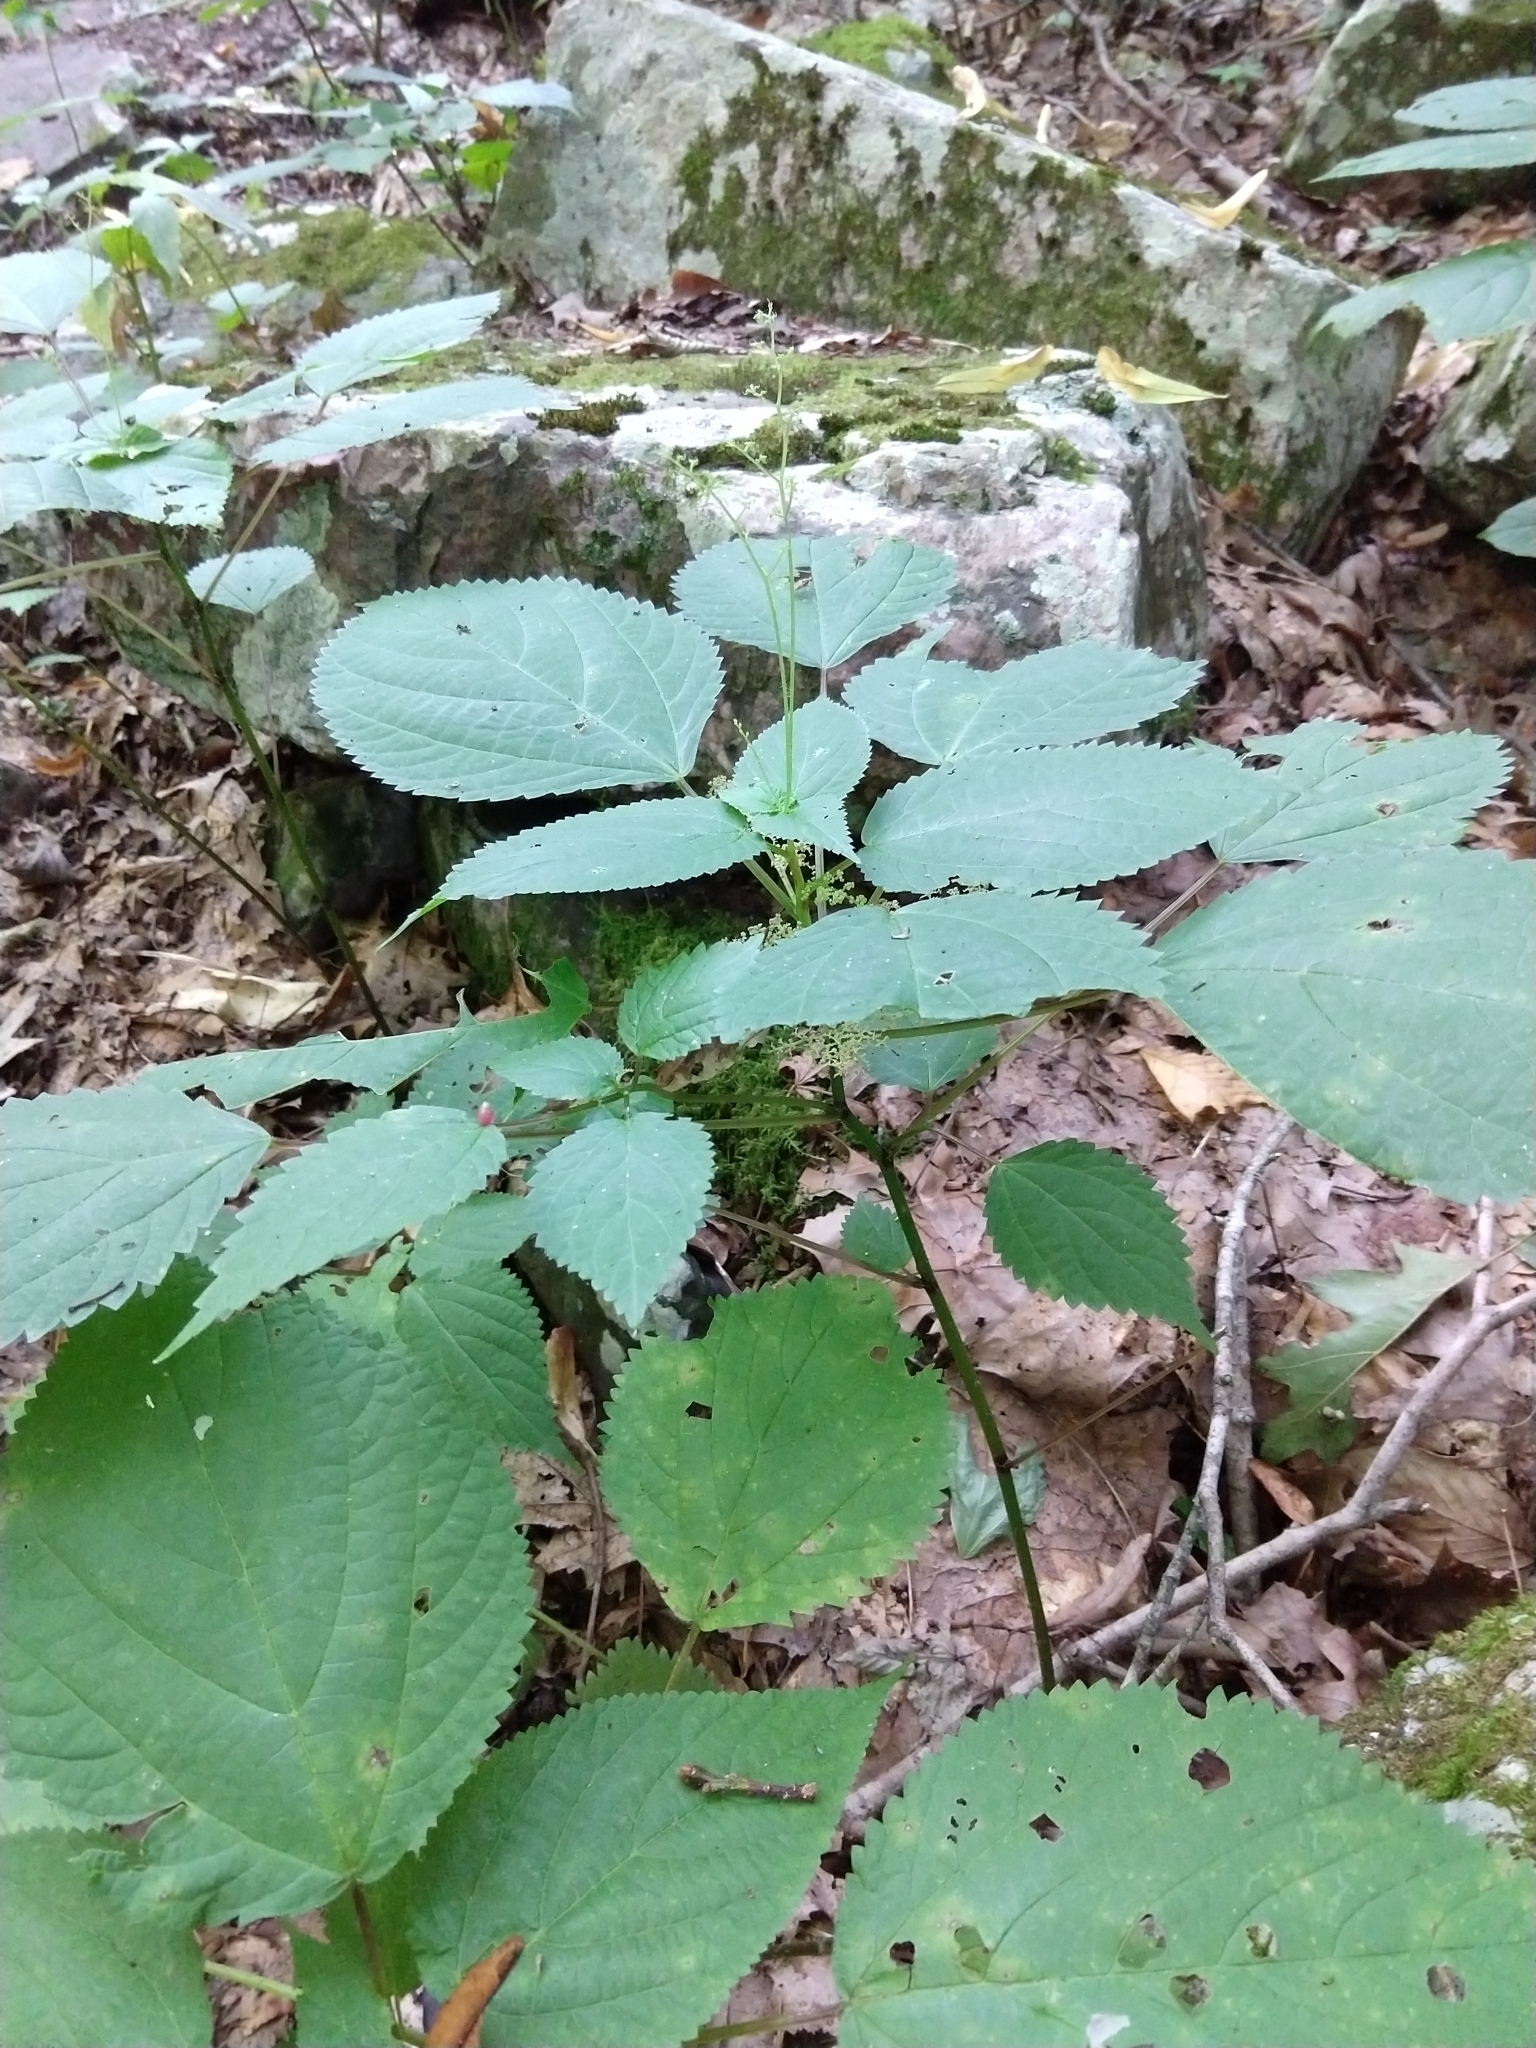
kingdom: Plantae
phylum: Tracheophyta
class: Magnoliopsida
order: Rosales
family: Urticaceae
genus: Laportea
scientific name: Laportea canadensis
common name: Canada nettle
